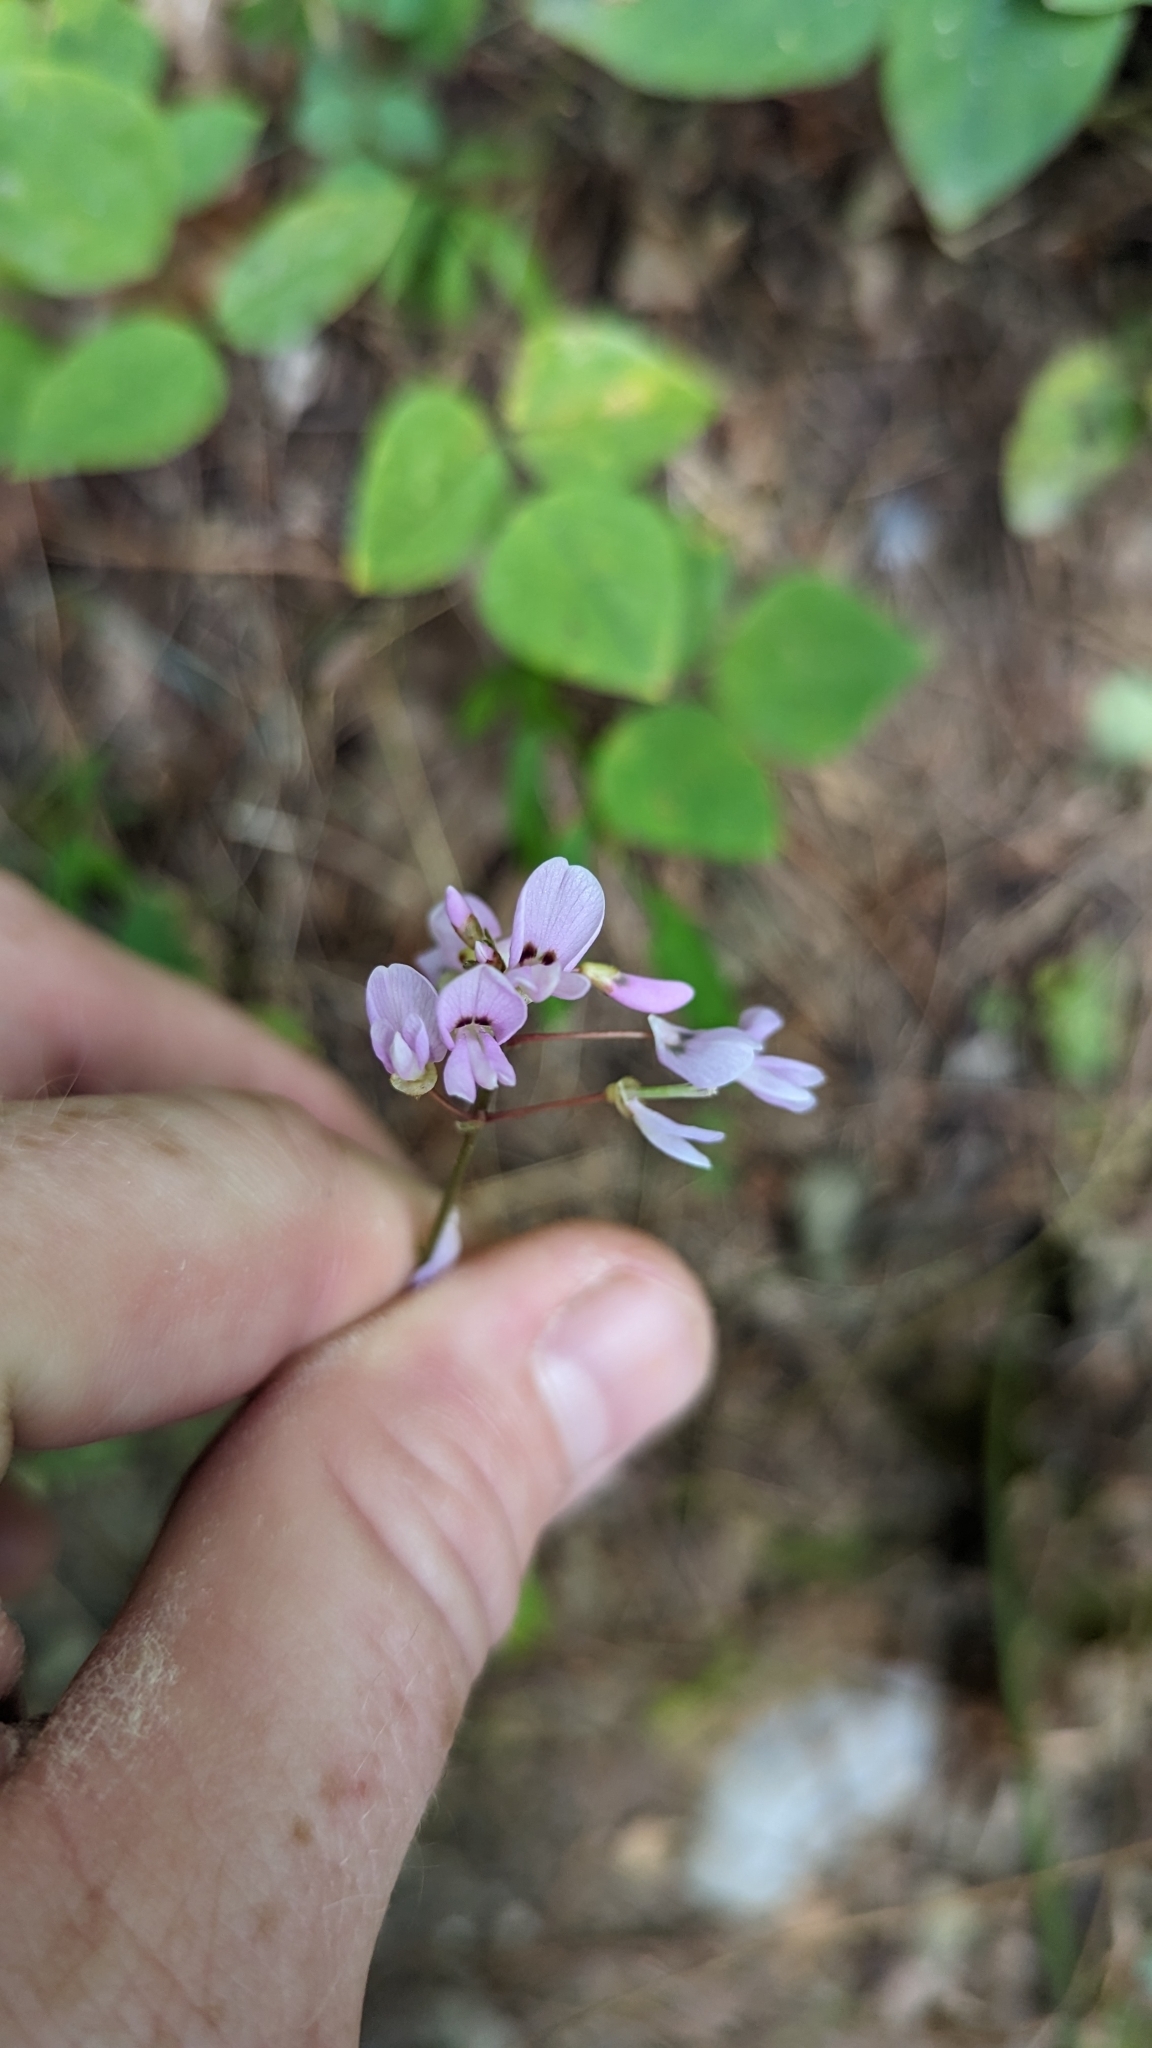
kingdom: Plantae
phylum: Tracheophyta
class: Magnoliopsida
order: Fabales
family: Fabaceae
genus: Hylodesmum
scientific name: Hylodesmum nudiflorum
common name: Bare-stemmed tick-trefoil
